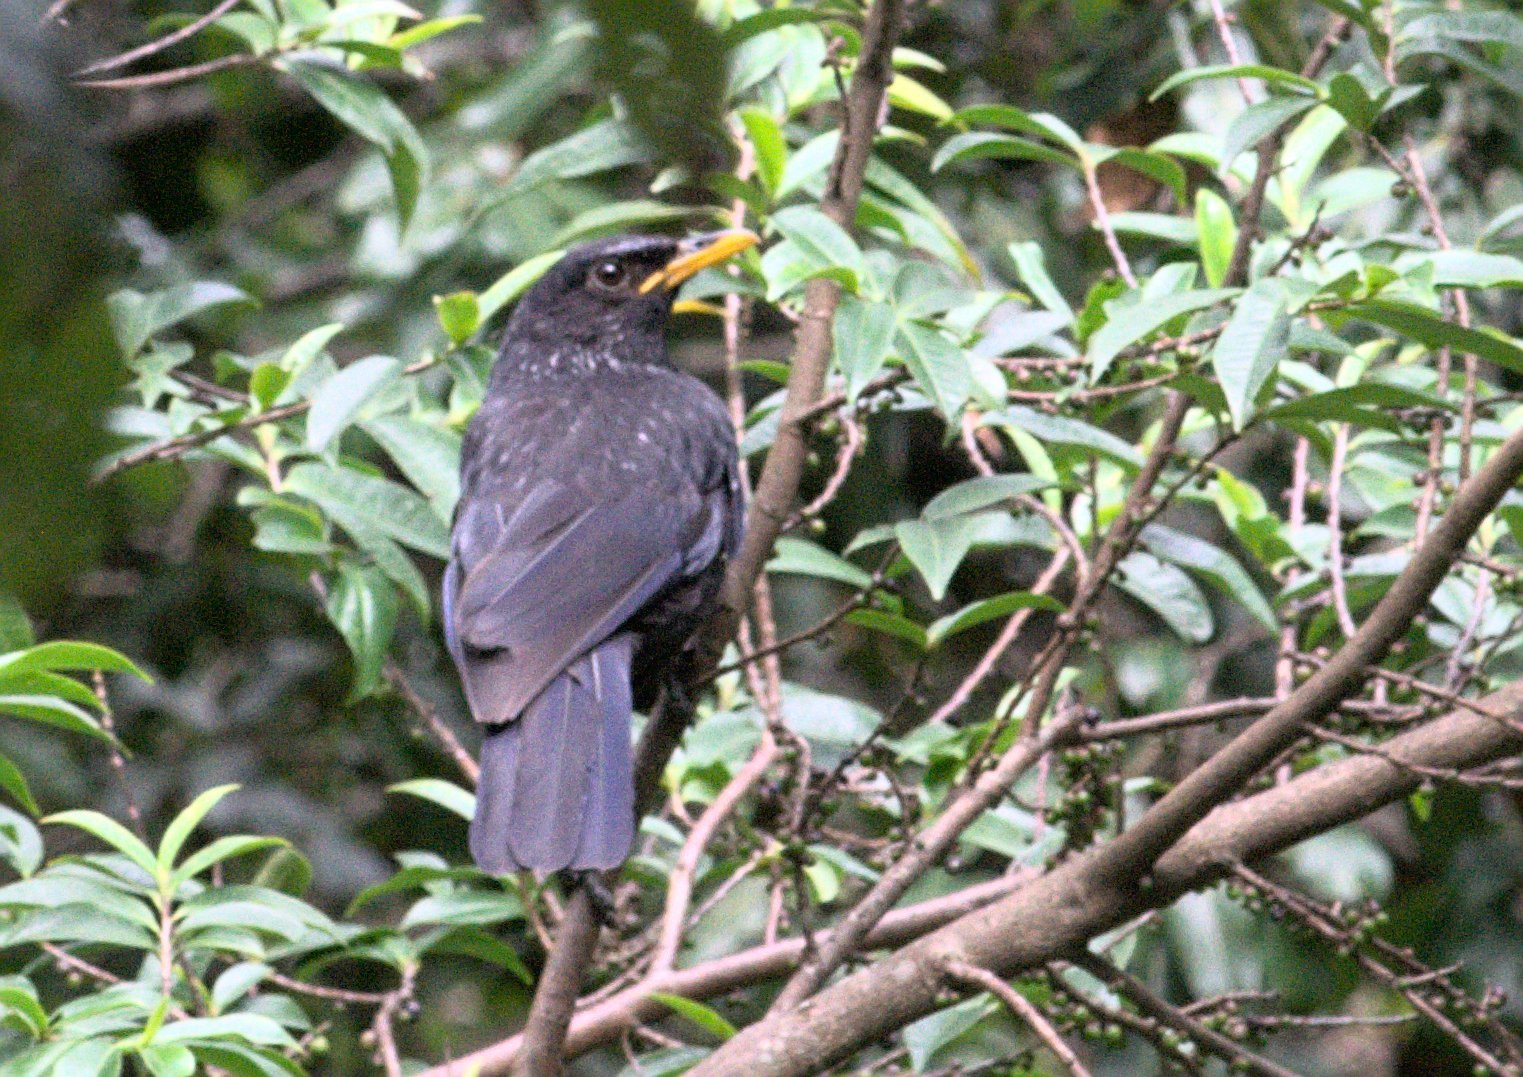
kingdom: Animalia
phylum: Chordata
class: Aves
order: Passeriformes
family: Muscicapidae
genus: Myophonus
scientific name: Myophonus caeruleus
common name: Blue whistling-thrush
